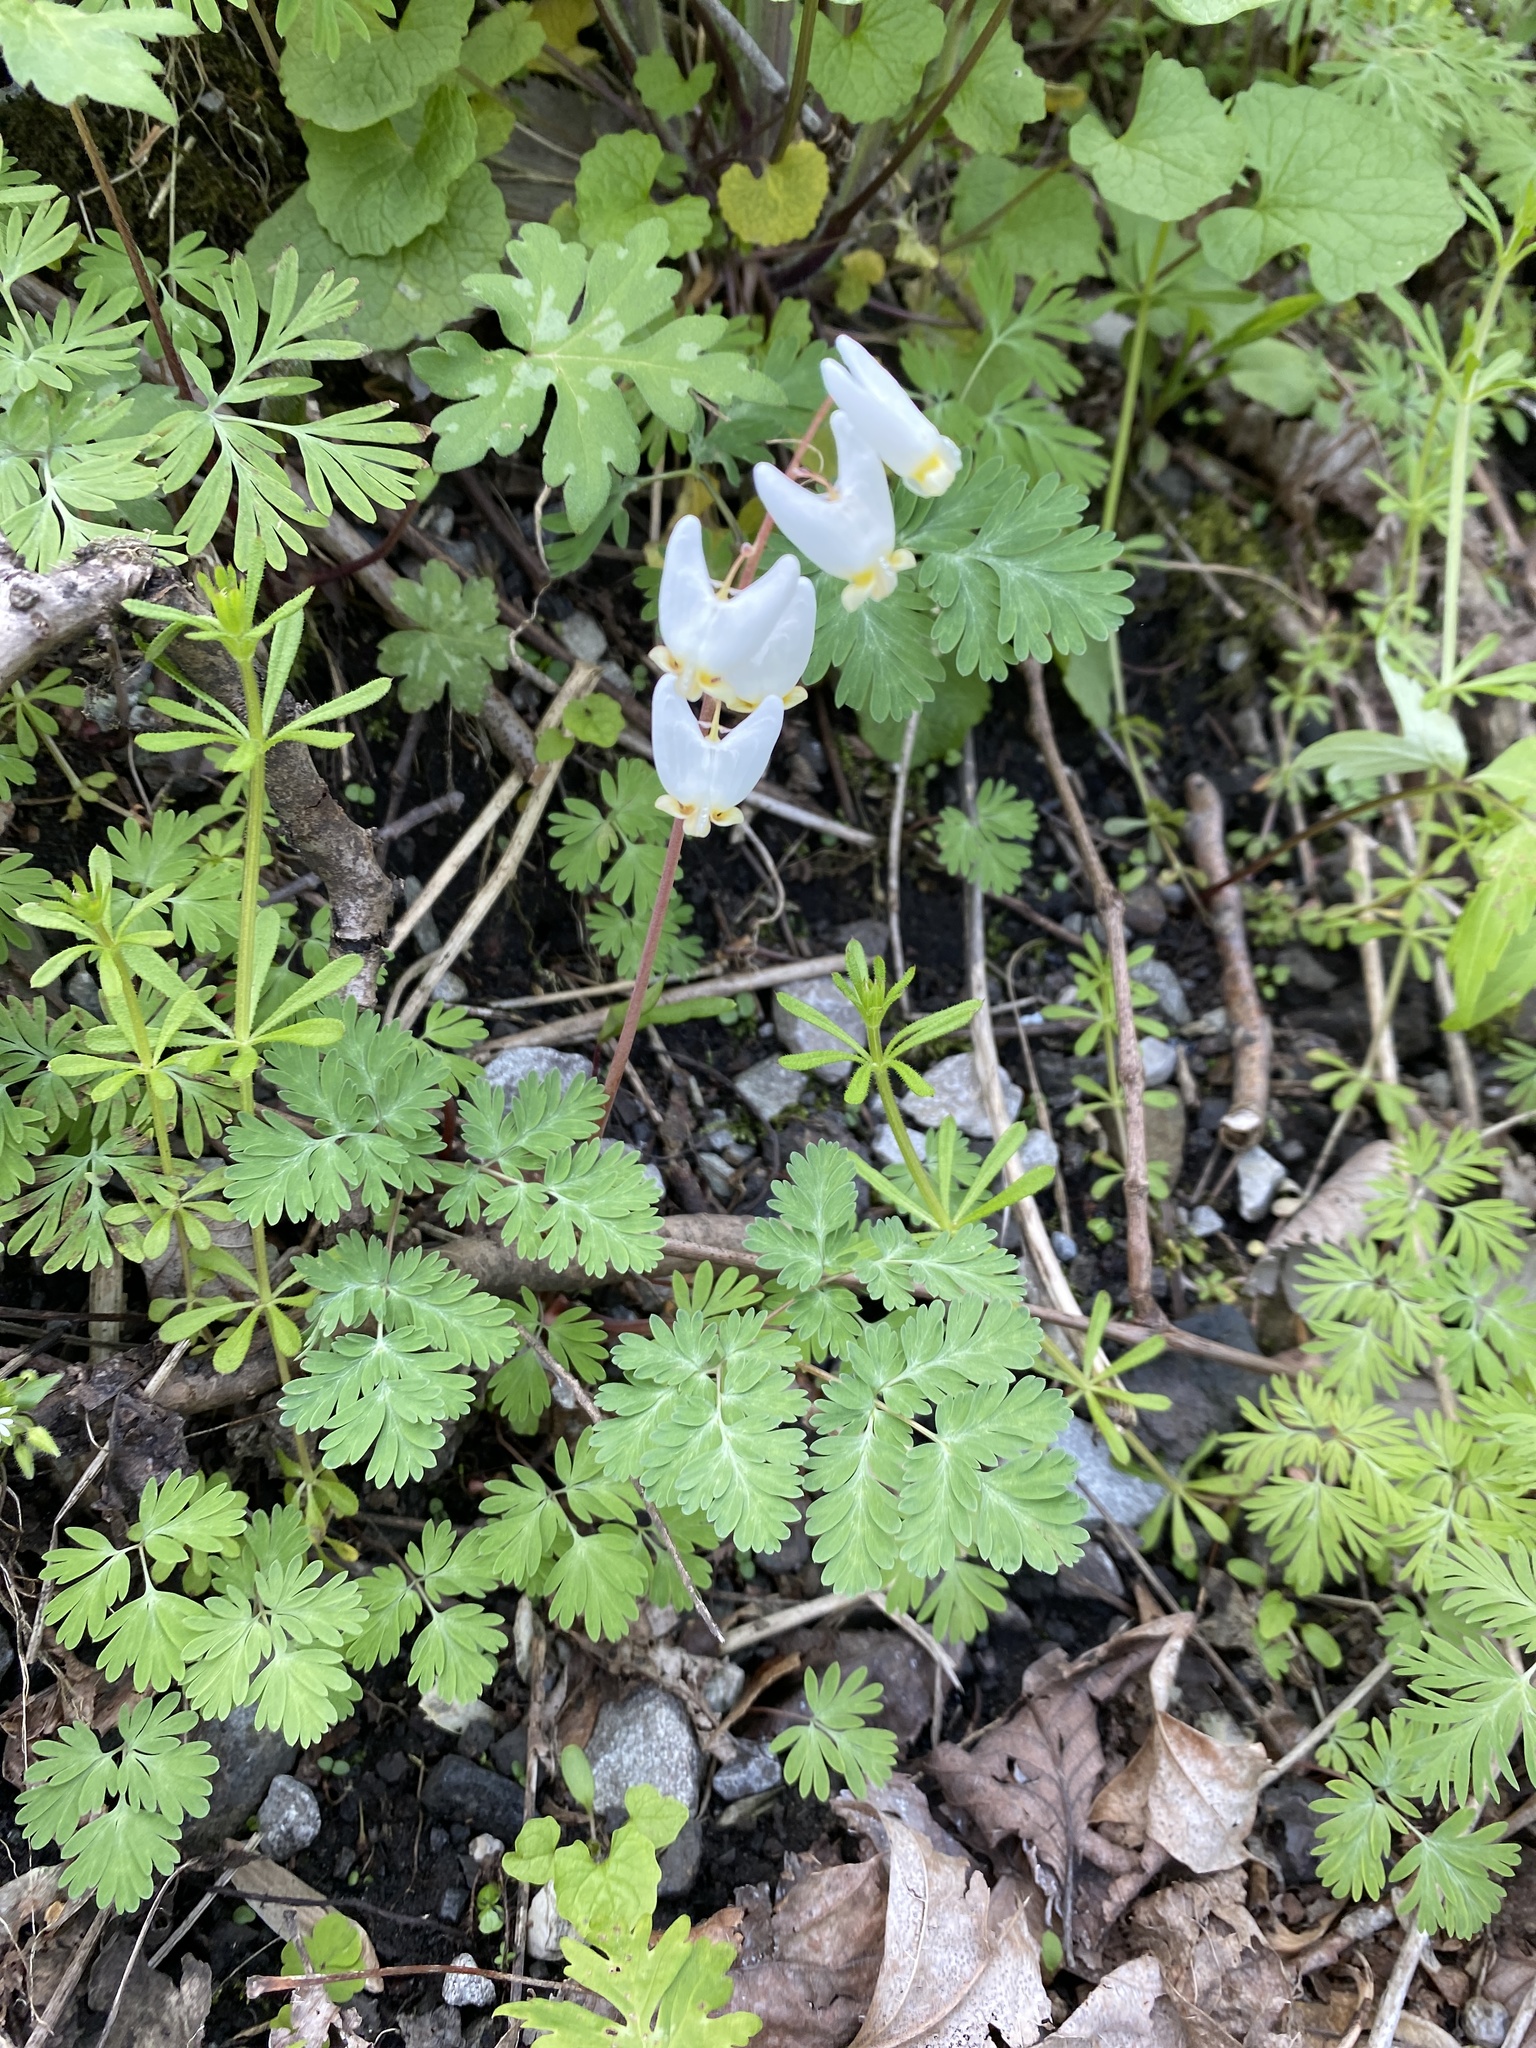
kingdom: Plantae
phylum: Tracheophyta
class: Magnoliopsida
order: Ranunculales
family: Papaveraceae
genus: Dicentra
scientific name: Dicentra cucullaria
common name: Dutchman's breeches
